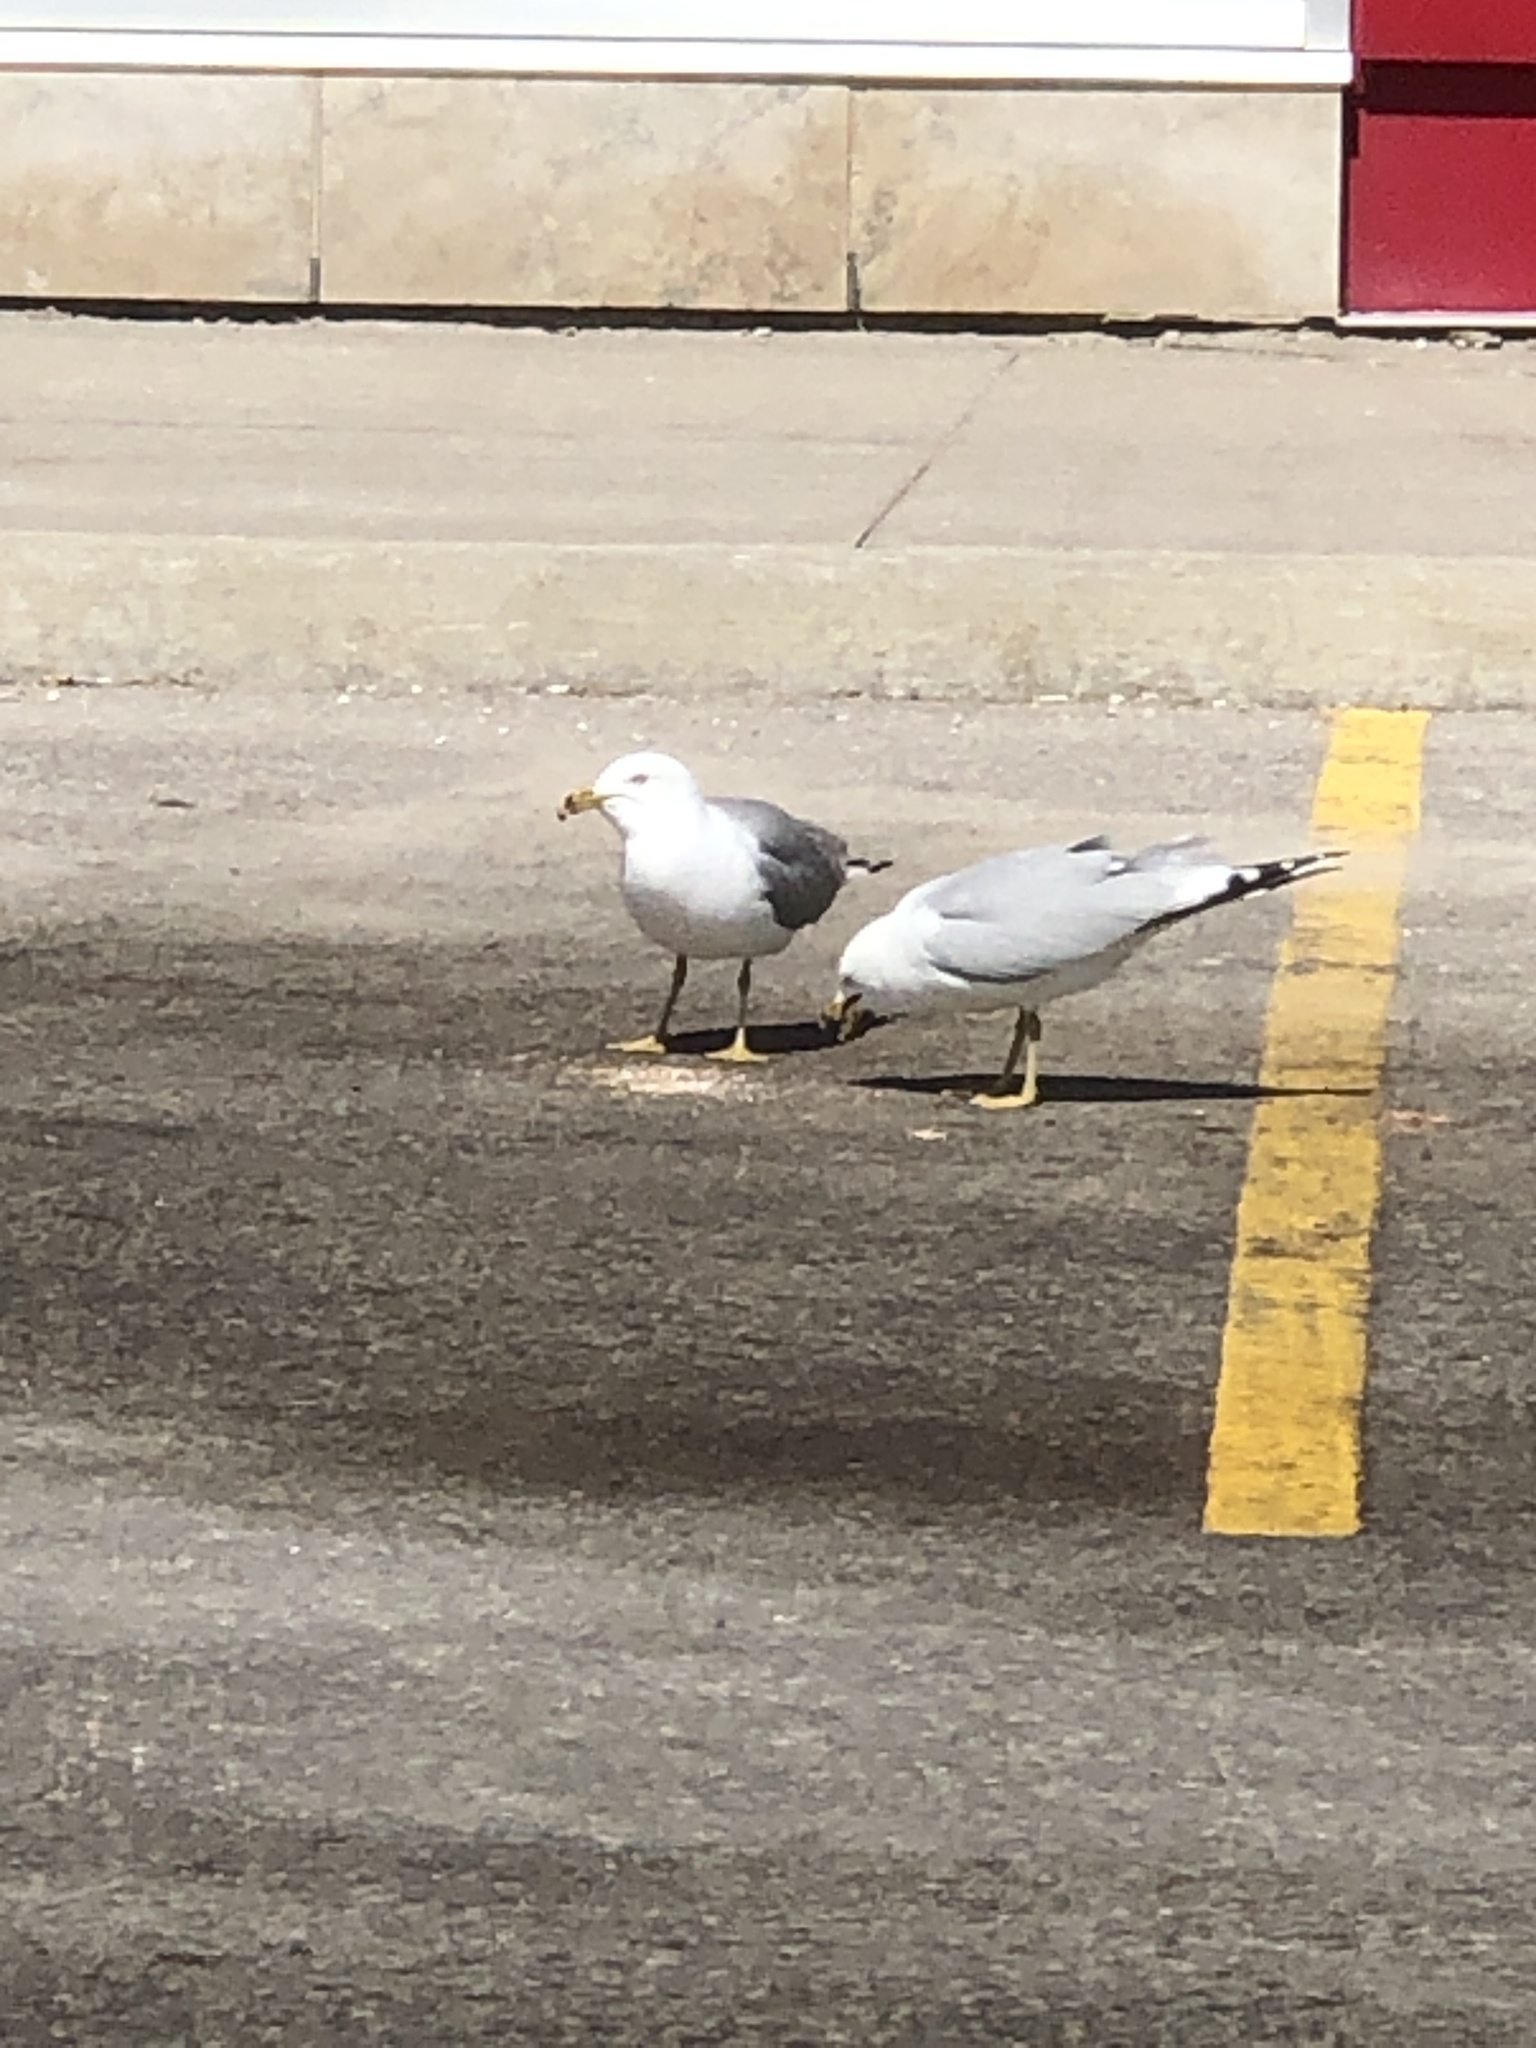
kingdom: Animalia
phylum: Chordata
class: Aves
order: Charadriiformes
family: Laridae
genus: Larus
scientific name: Larus delawarensis
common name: Ring-billed gull
